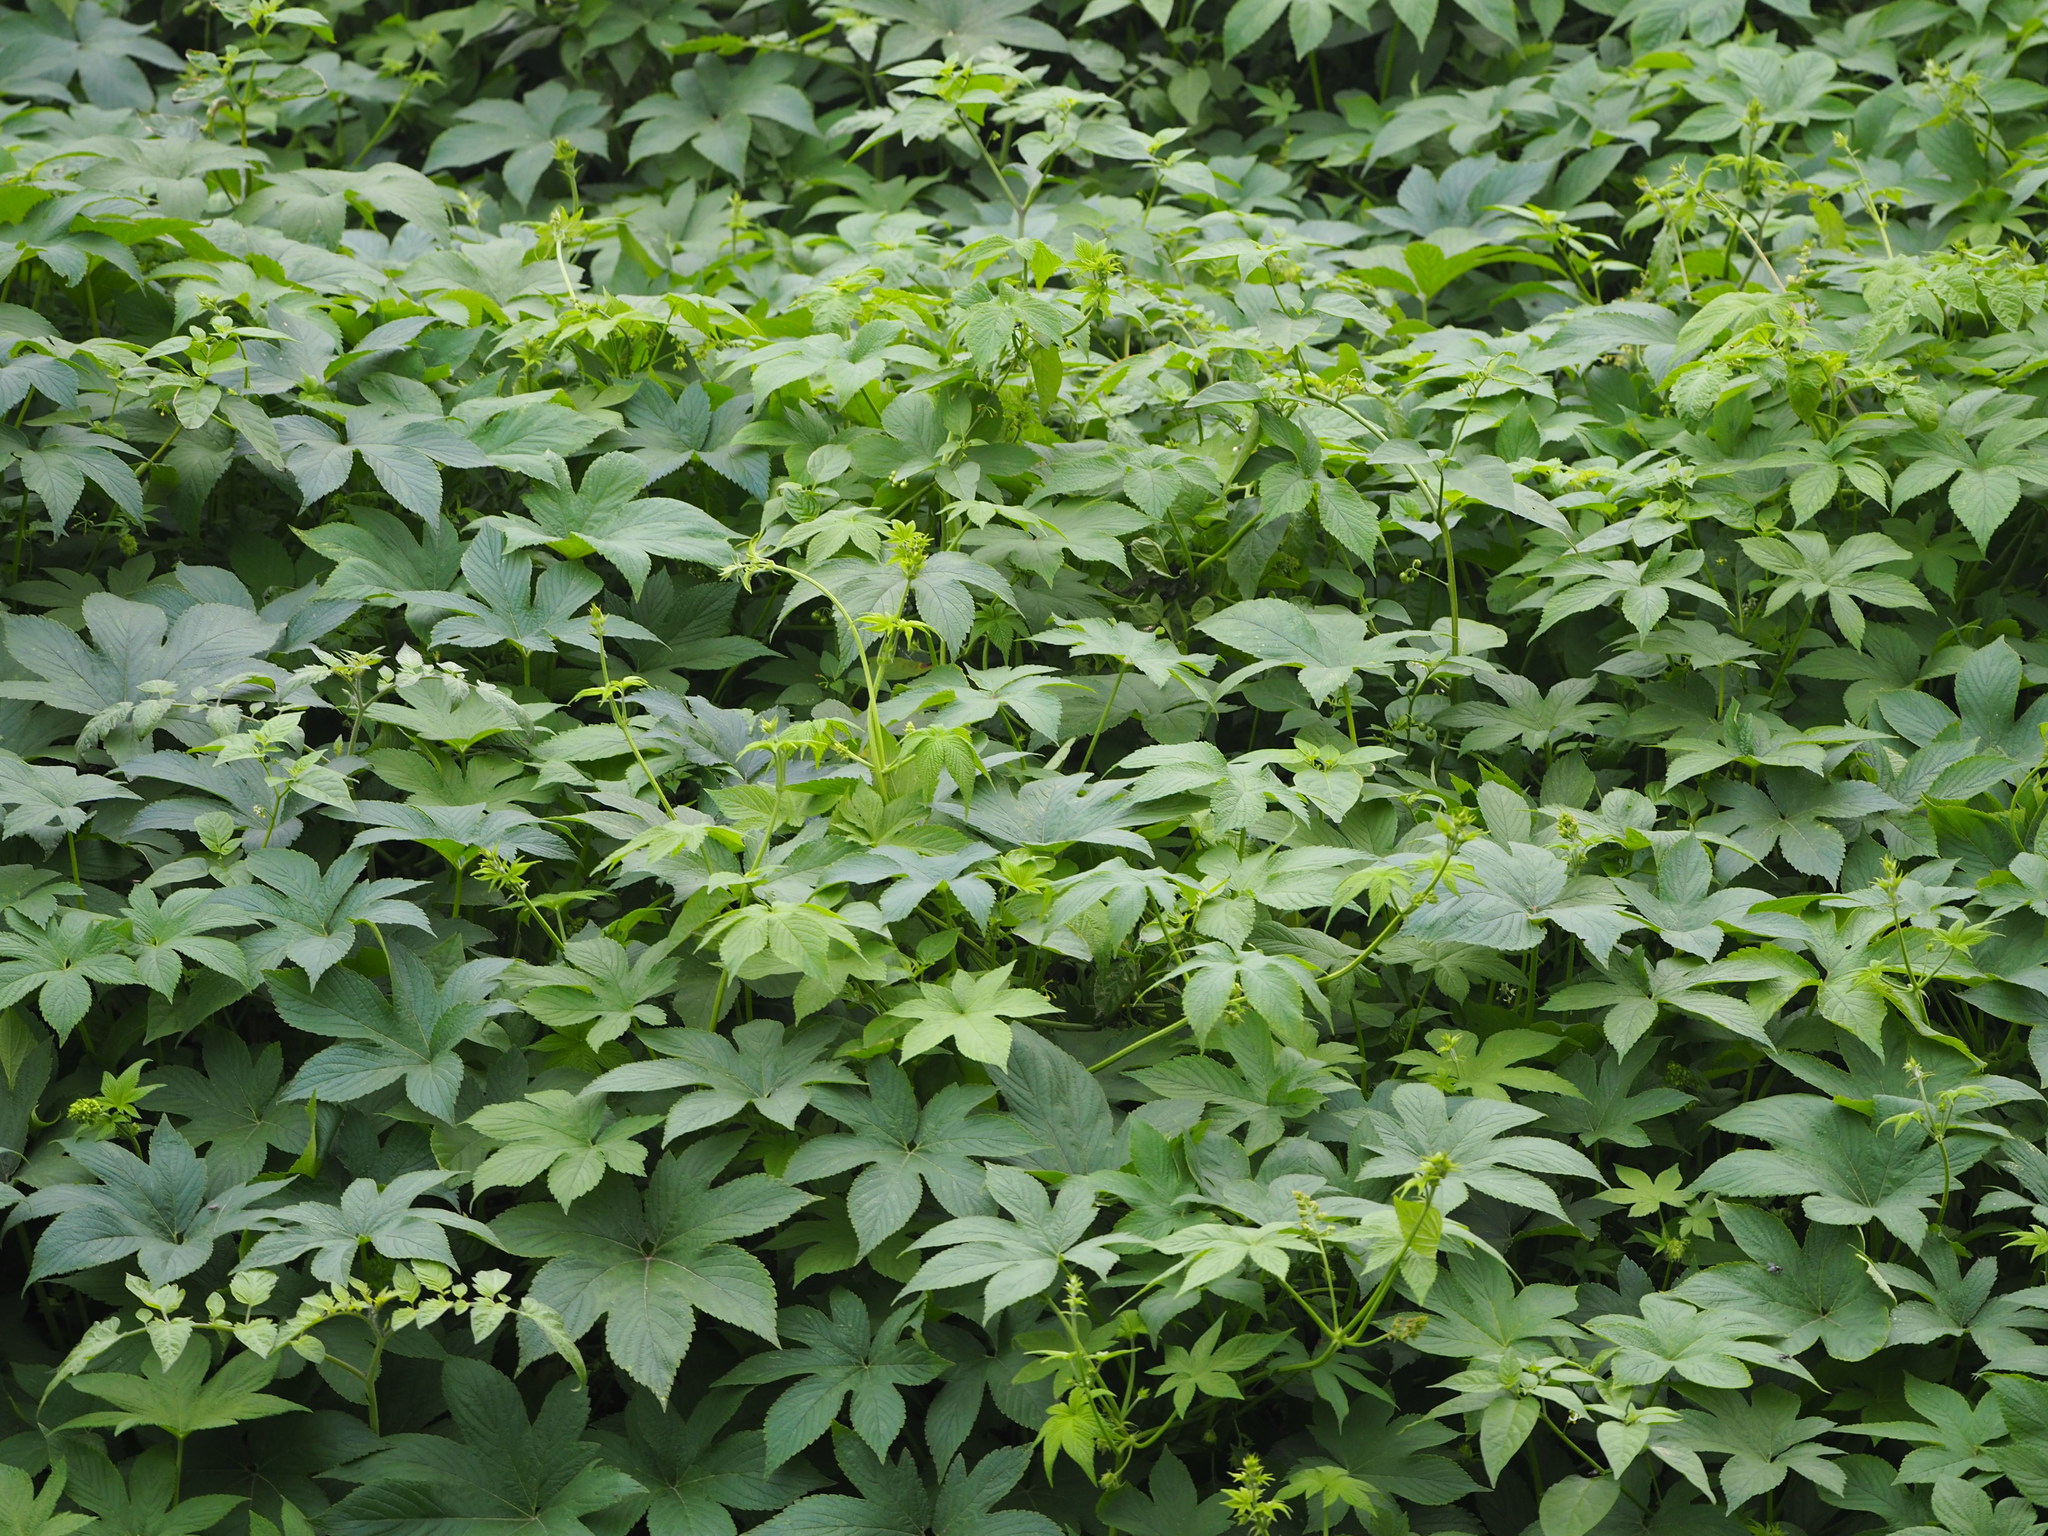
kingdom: Plantae
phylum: Tracheophyta
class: Magnoliopsida
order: Rosales
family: Cannabaceae
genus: Humulus
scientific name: Humulus scandens
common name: Japanese hop
